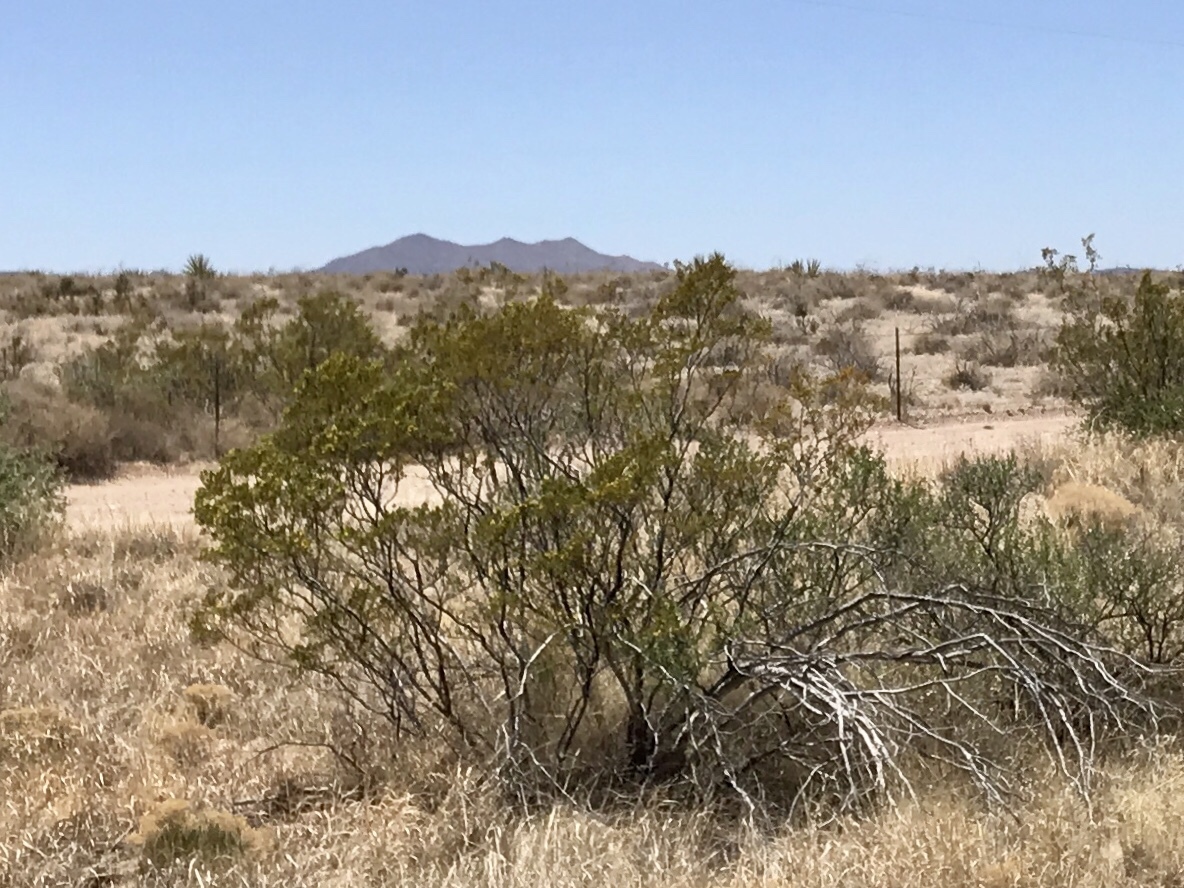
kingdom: Plantae
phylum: Tracheophyta
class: Magnoliopsida
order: Zygophyllales
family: Zygophyllaceae
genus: Larrea
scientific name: Larrea tridentata
